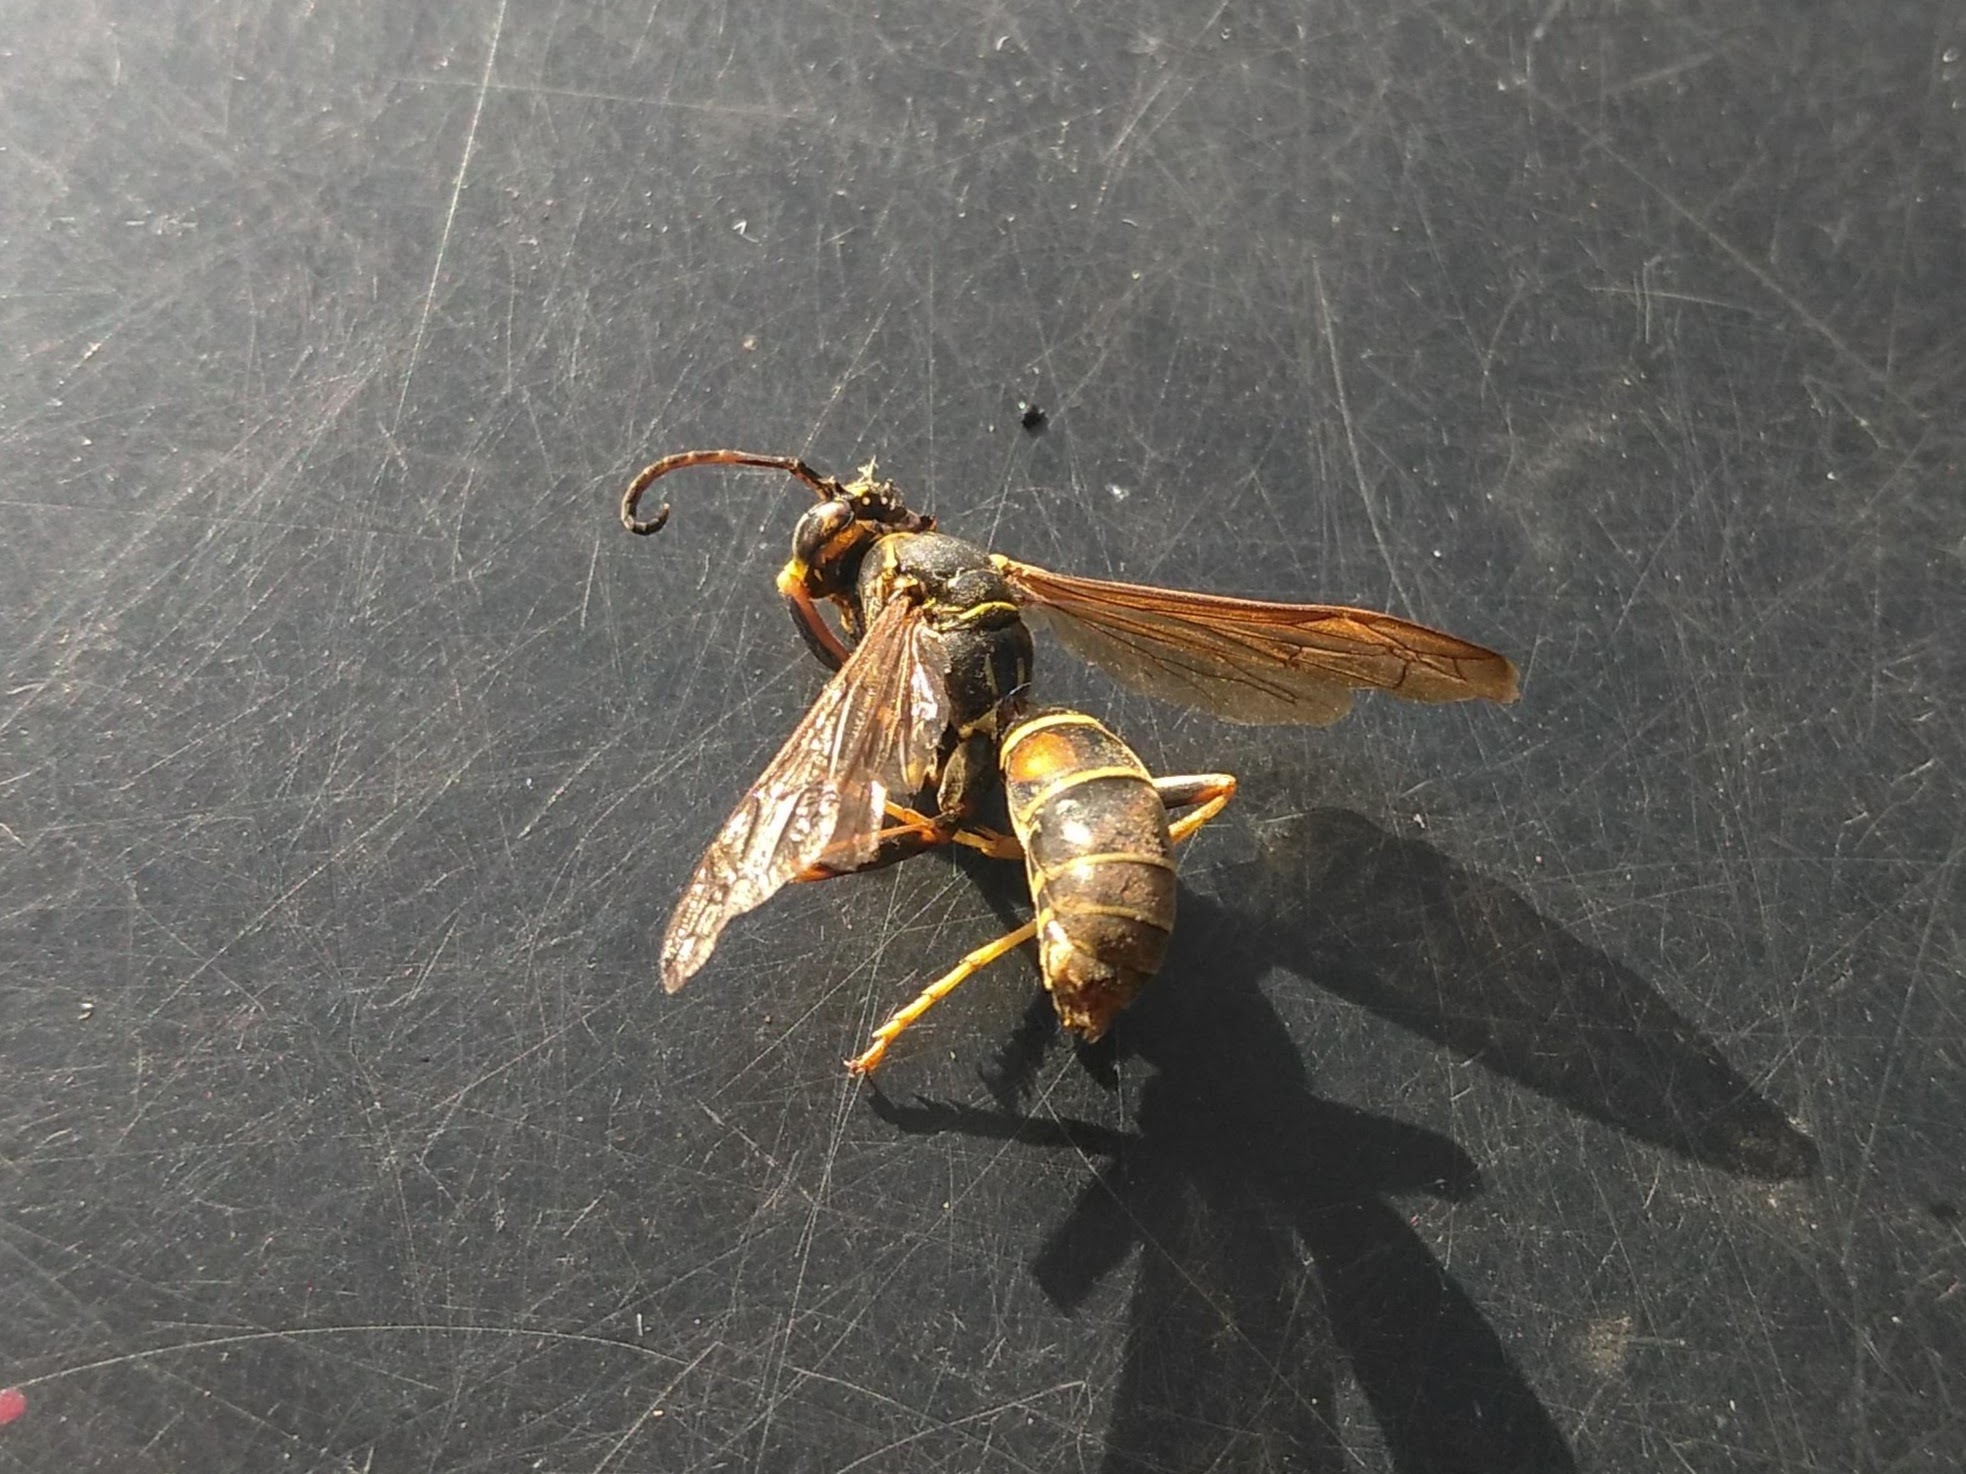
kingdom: Animalia
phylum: Arthropoda
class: Insecta
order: Hymenoptera
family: Eumenidae
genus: Polistes
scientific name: Polistes fuscatus
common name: Dark paper wasp
